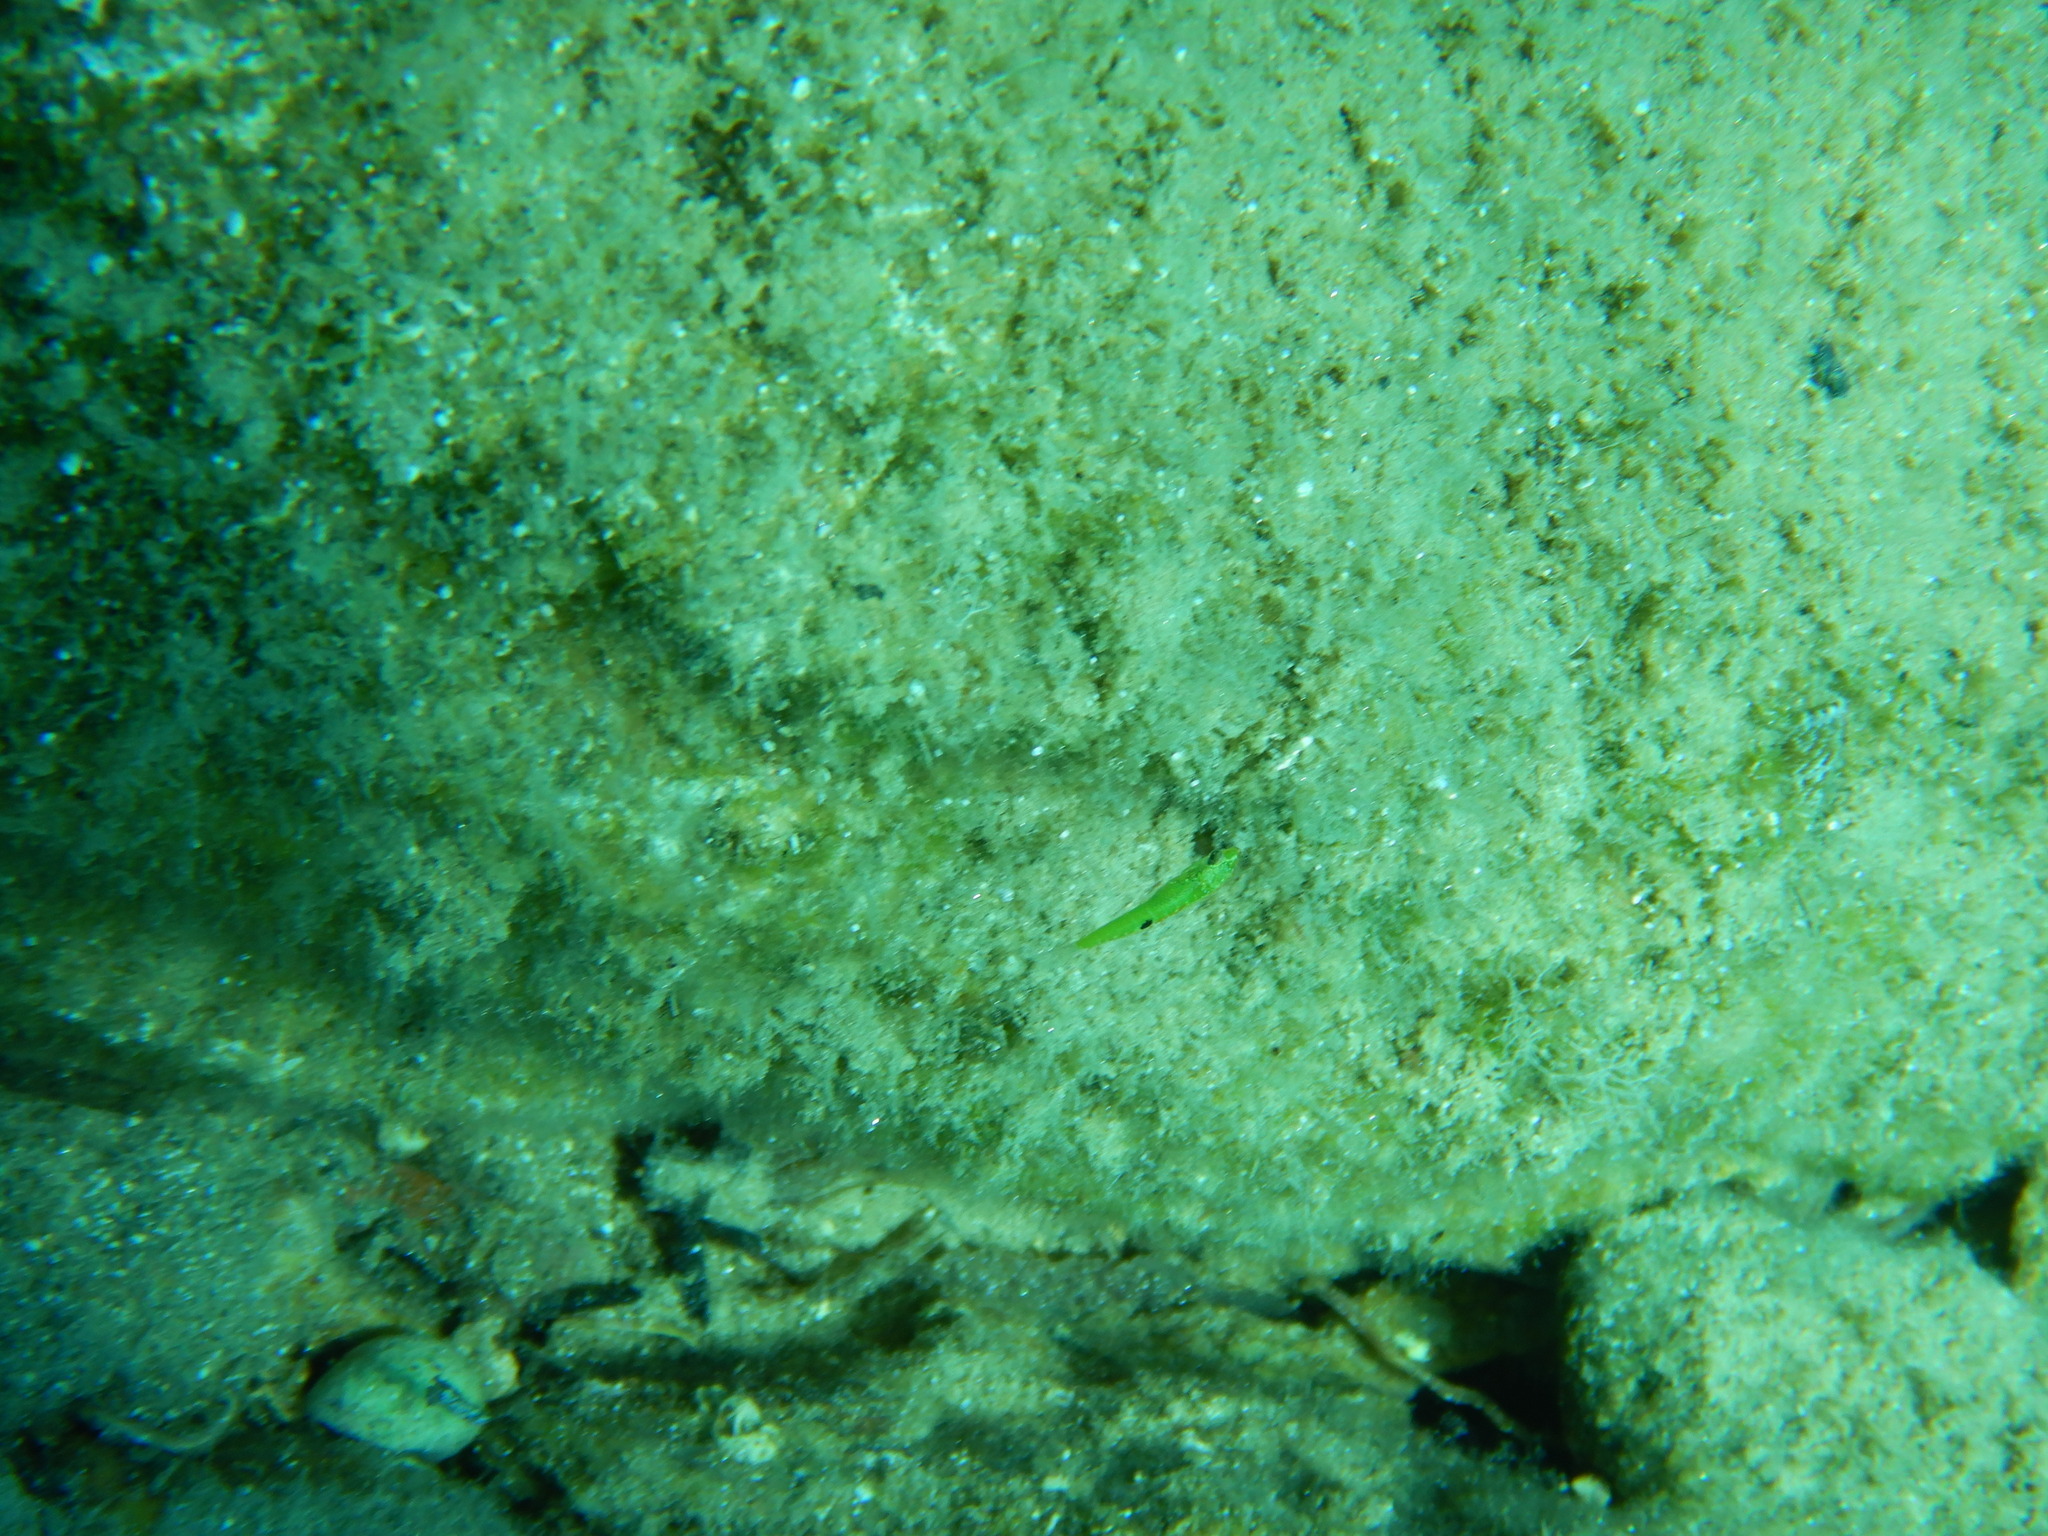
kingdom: Animalia
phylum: Chordata
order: Perciformes
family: Labridae
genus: Thalassoma
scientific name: Thalassoma pavo
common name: Ornate wrasse
